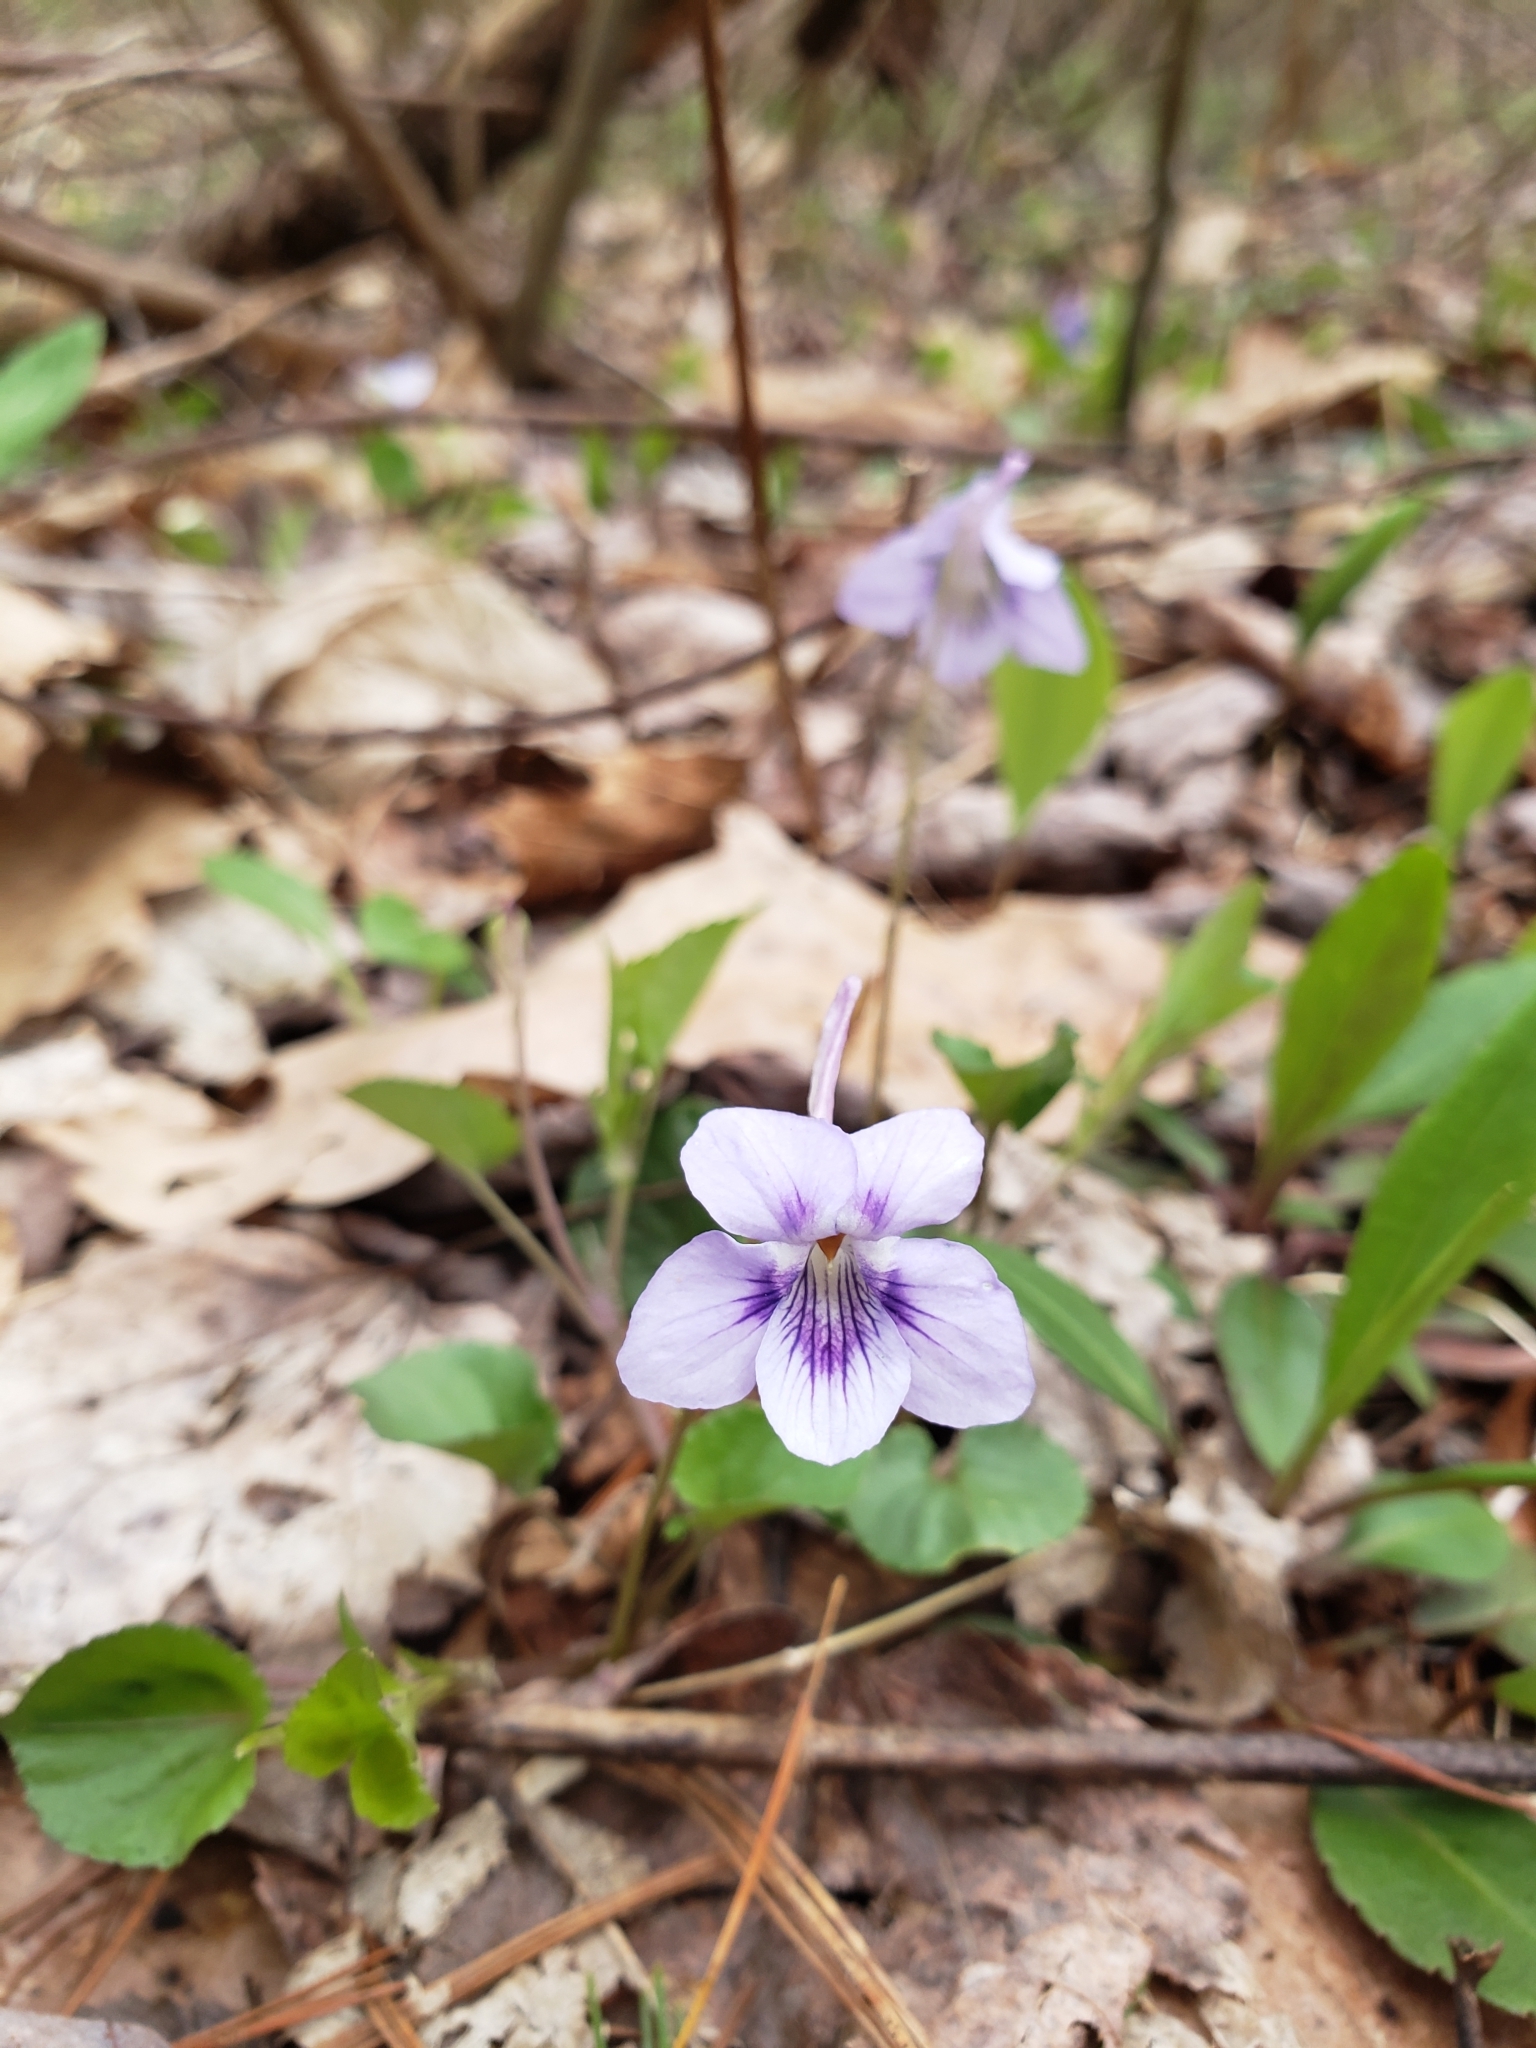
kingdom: Plantae
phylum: Tracheophyta
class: Magnoliopsida
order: Malpighiales
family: Violaceae
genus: Viola
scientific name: Viola rostrata
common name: Long-spur violet
